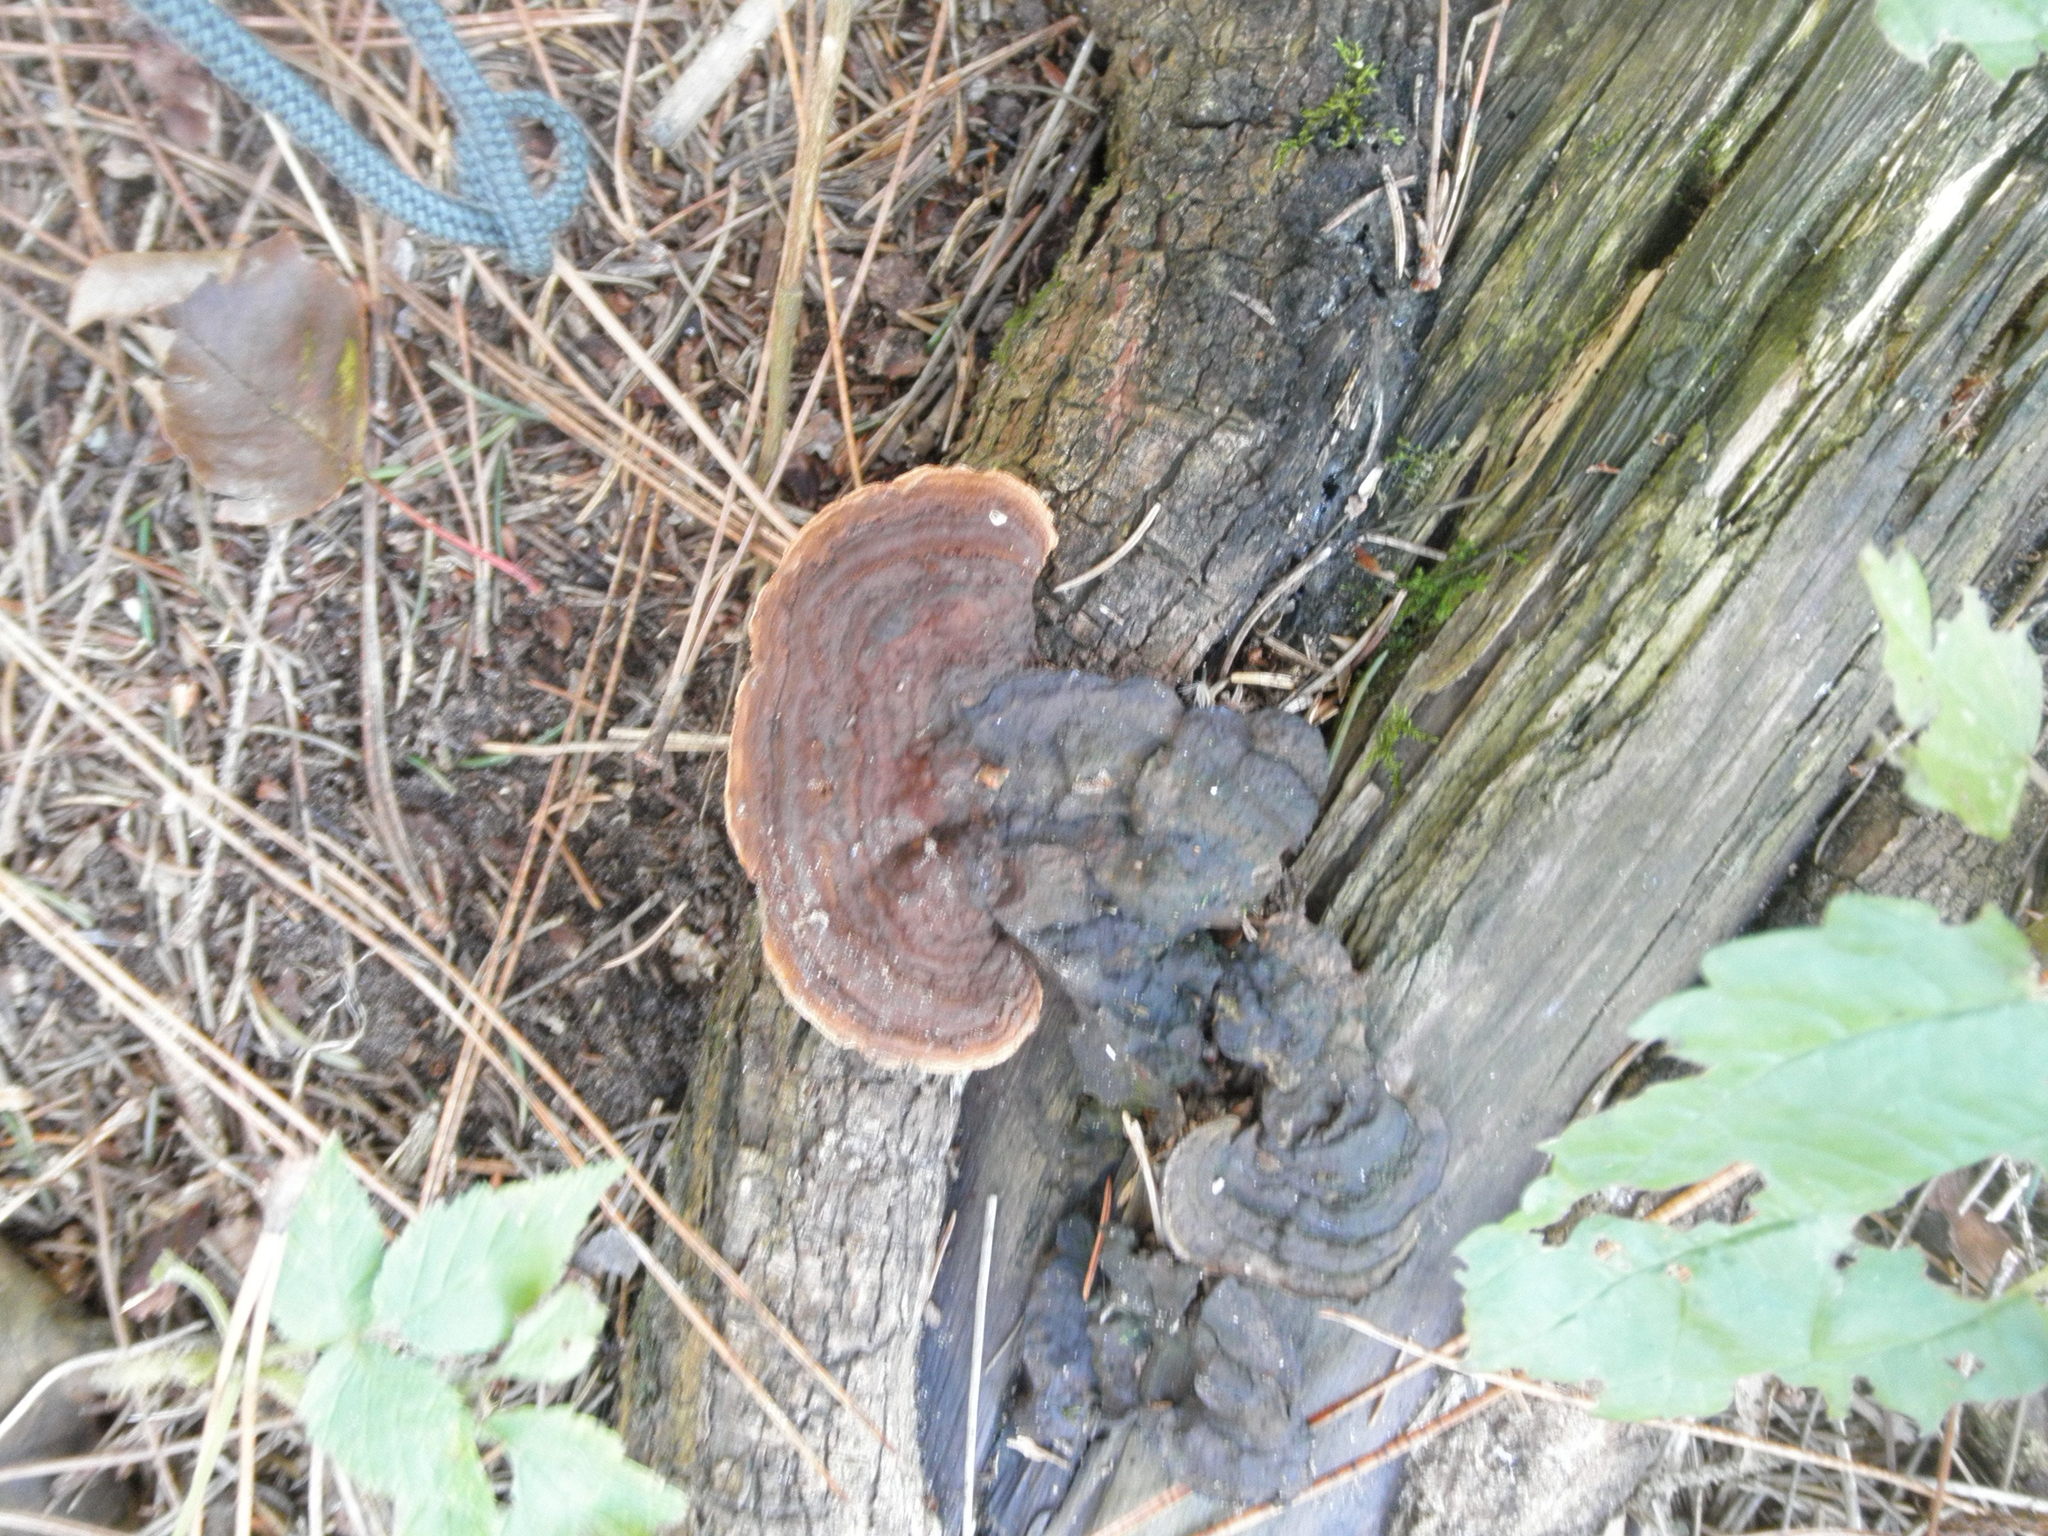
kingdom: Fungi
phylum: Basidiomycota
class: Agaricomycetes
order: Gloeophyllales
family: Gloeophyllaceae
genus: Gloeophyllum
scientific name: Gloeophyllum sepiarium
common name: Conifer mazegill
